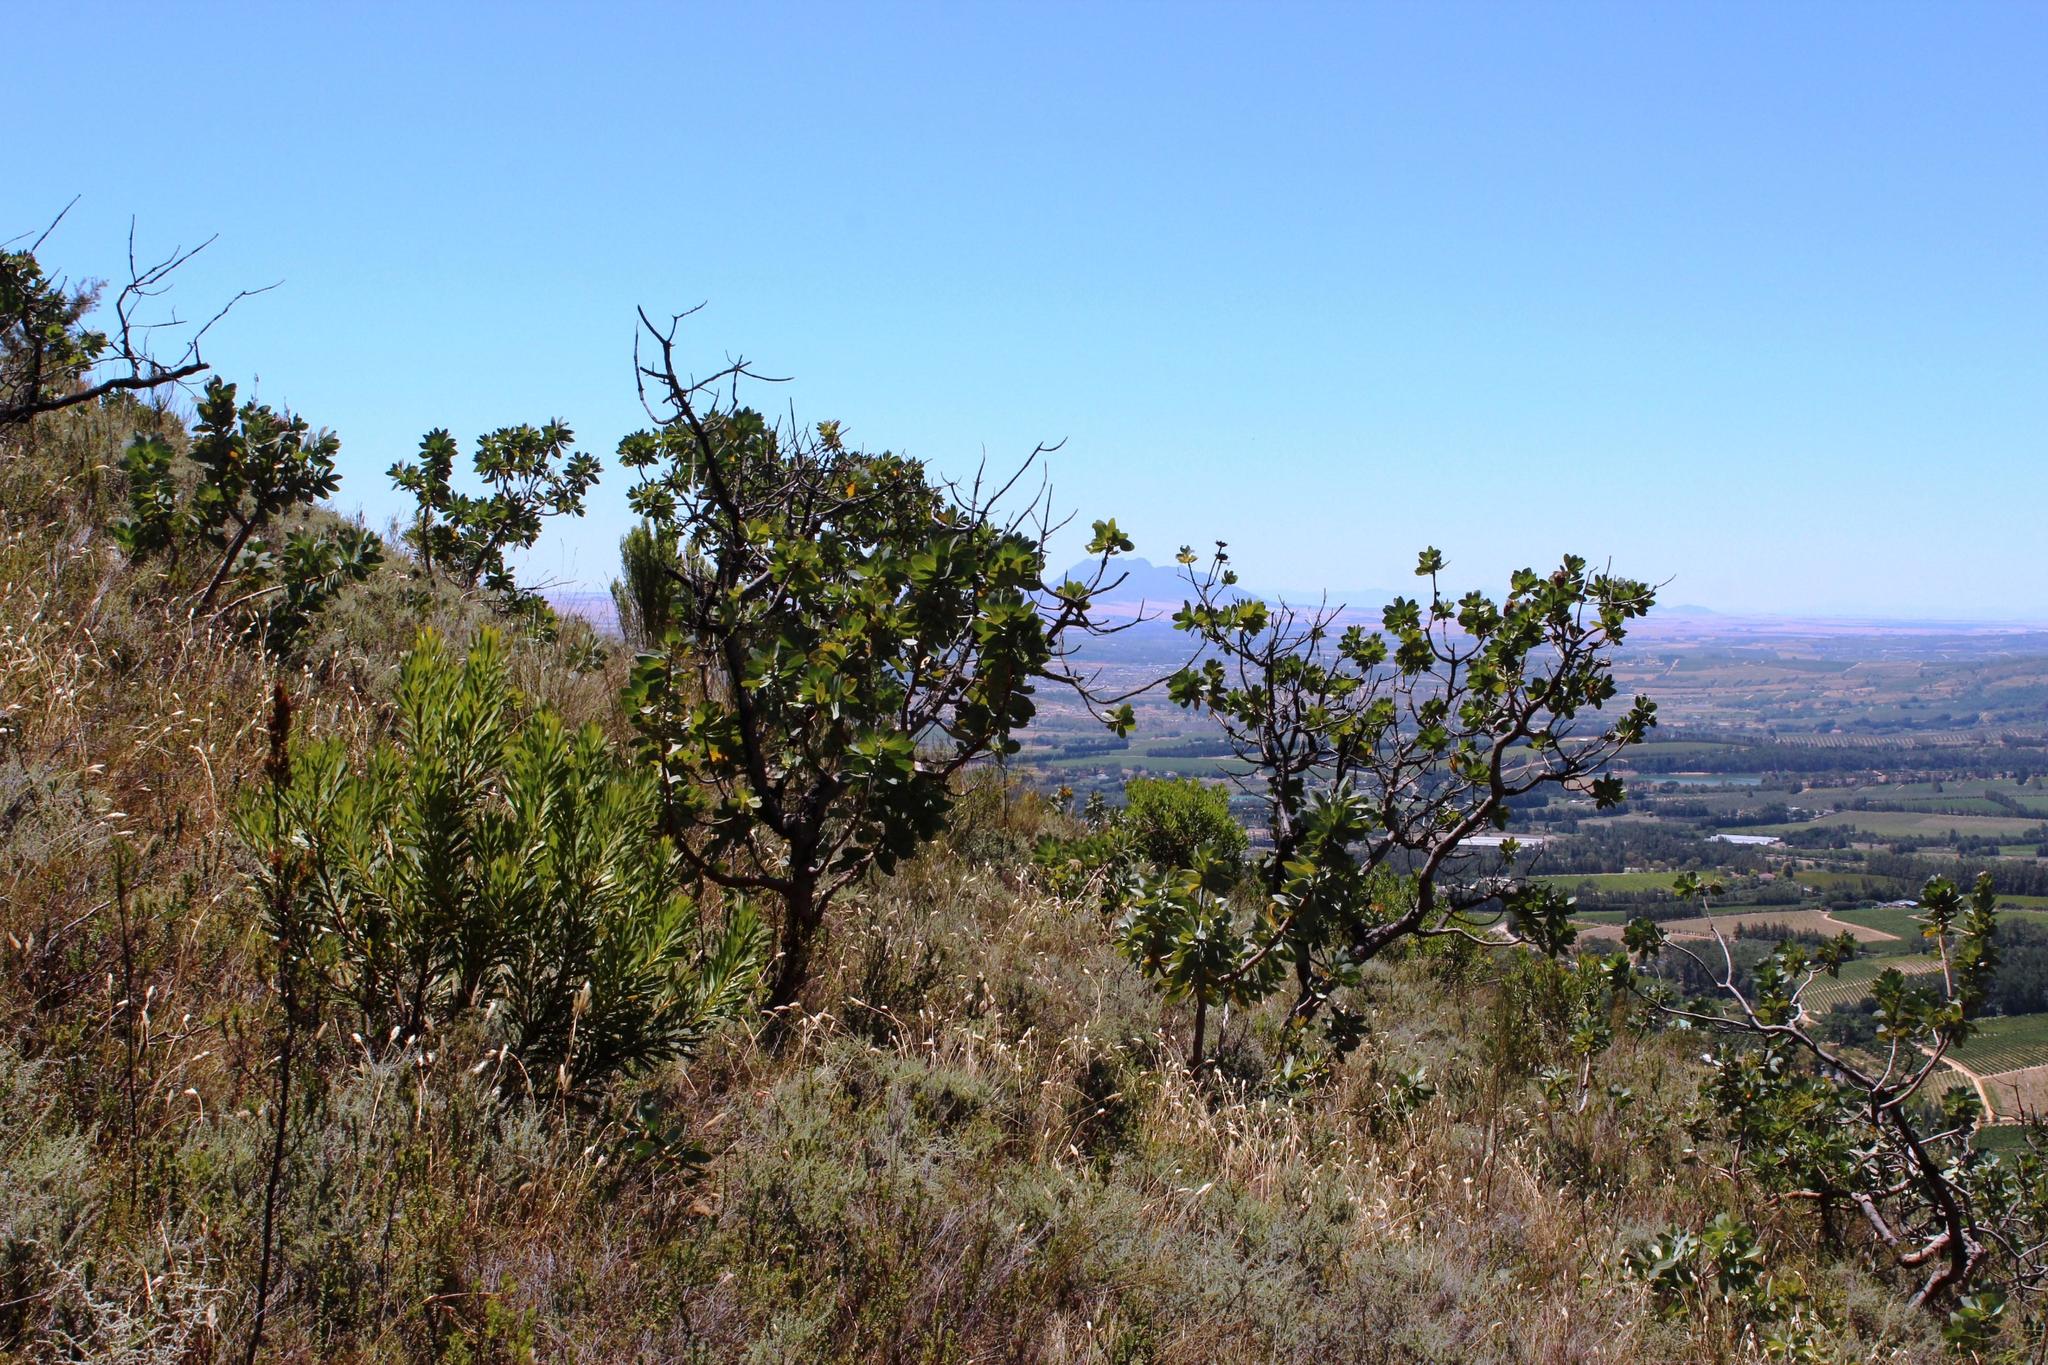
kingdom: Plantae
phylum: Tracheophyta
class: Magnoliopsida
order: Proteales
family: Proteaceae
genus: Protea
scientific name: Protea nitida
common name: Tree protea
